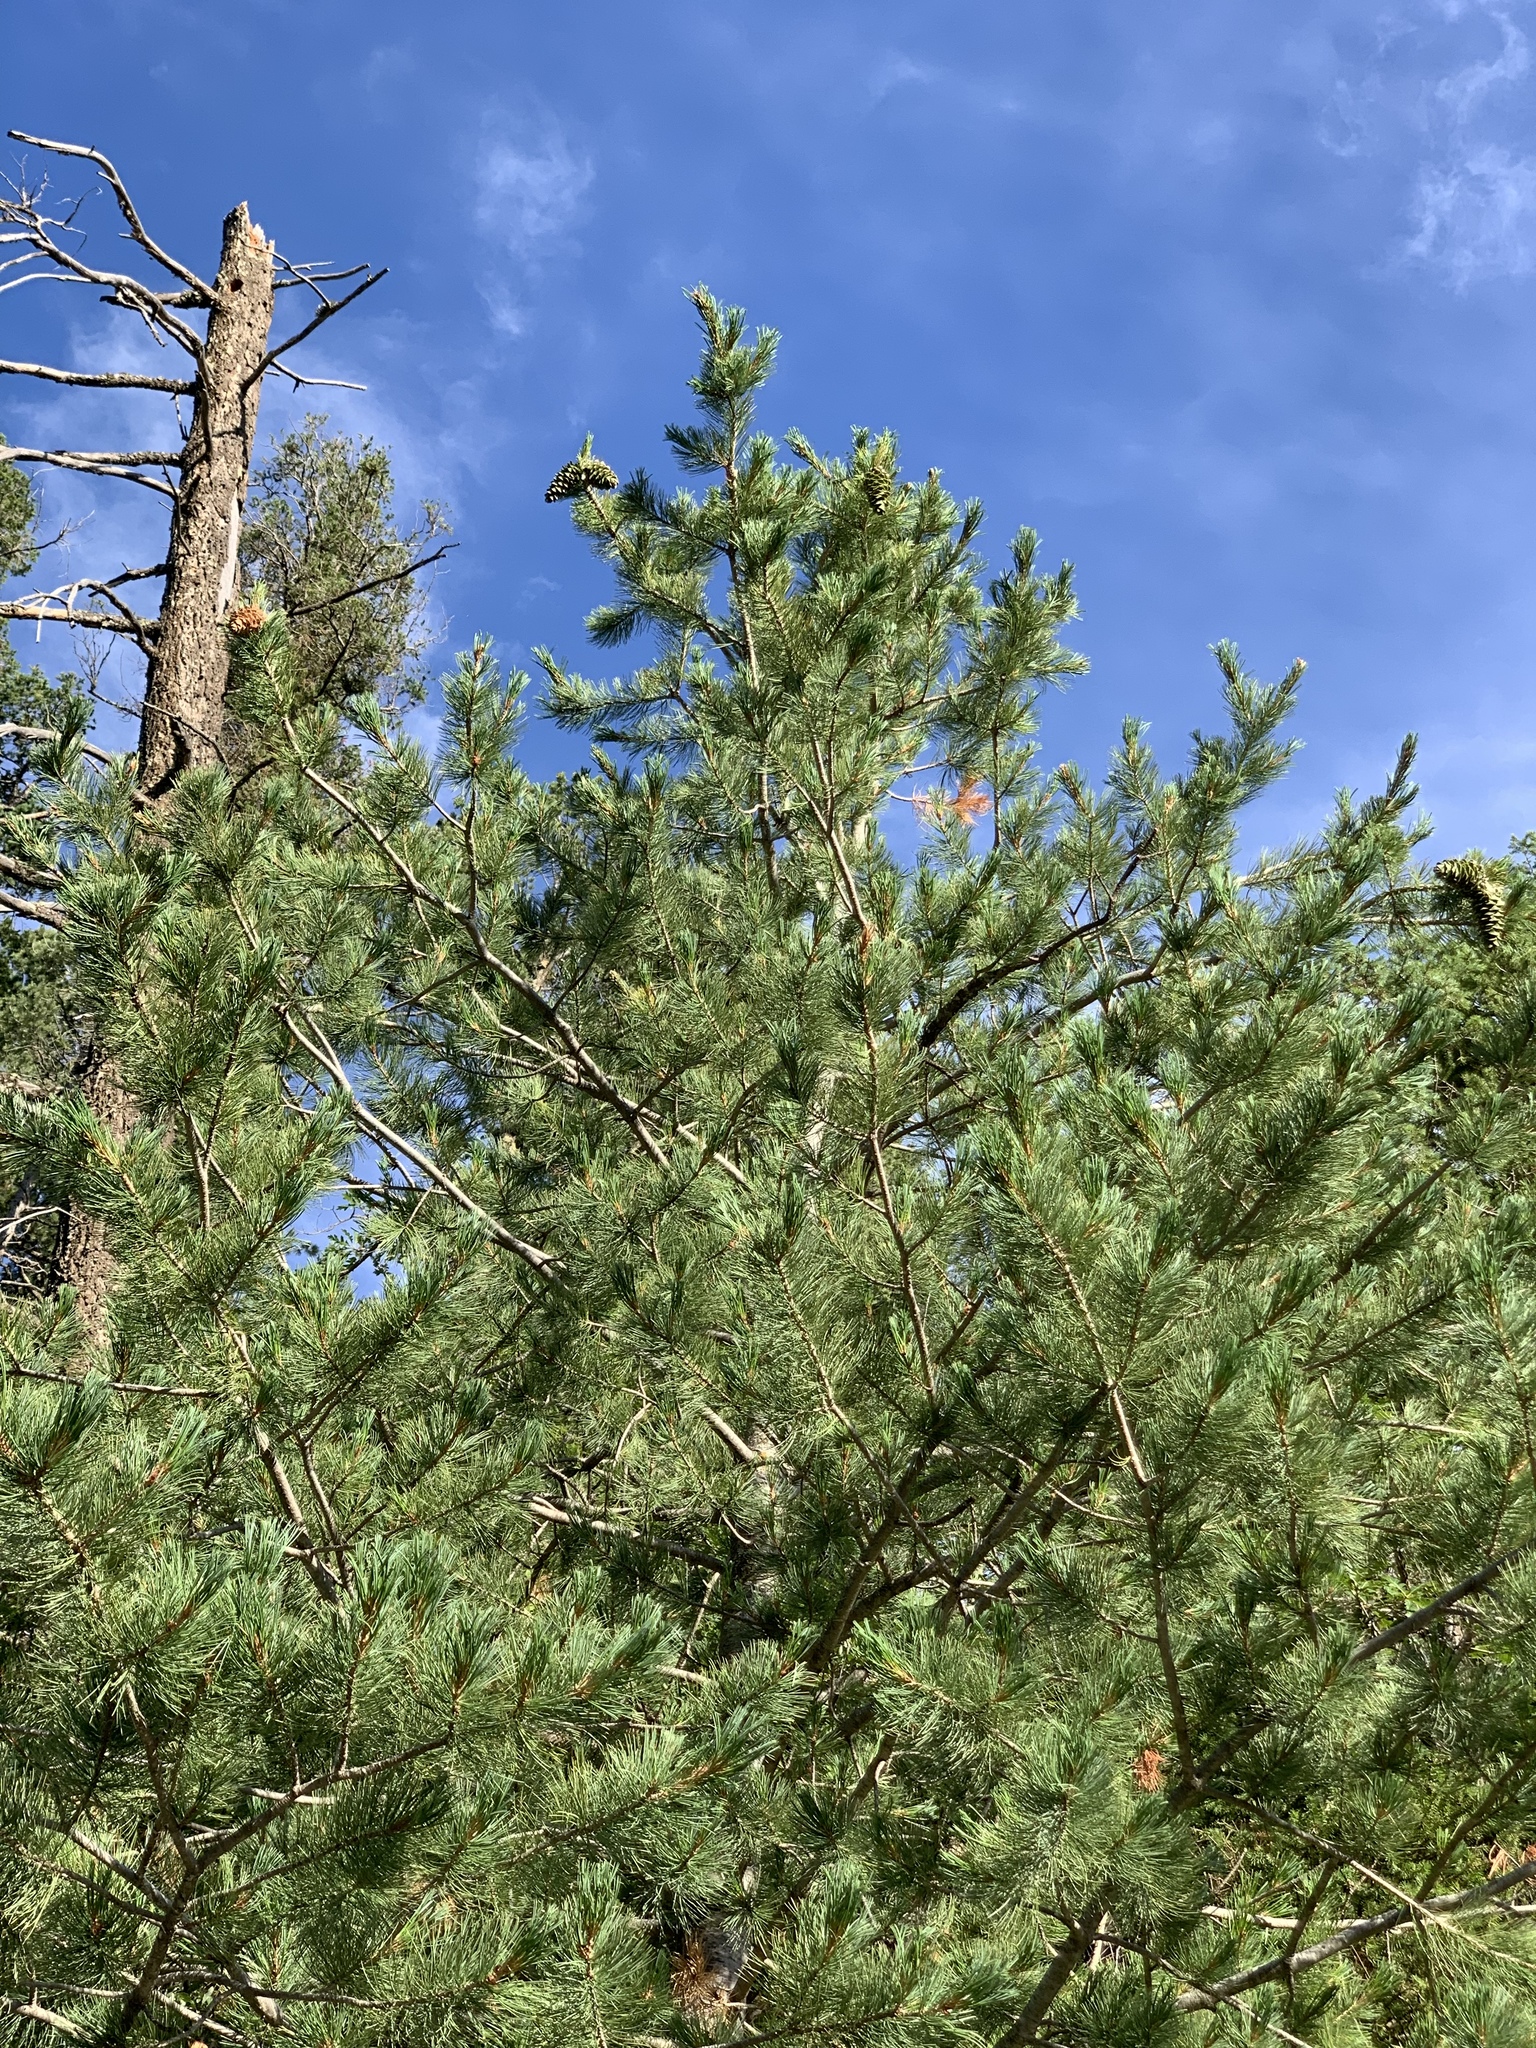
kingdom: Plantae
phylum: Tracheophyta
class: Pinopsida
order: Pinales
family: Pinaceae
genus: Pinus
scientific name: Pinus strobiformis
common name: Southwestern white pine
